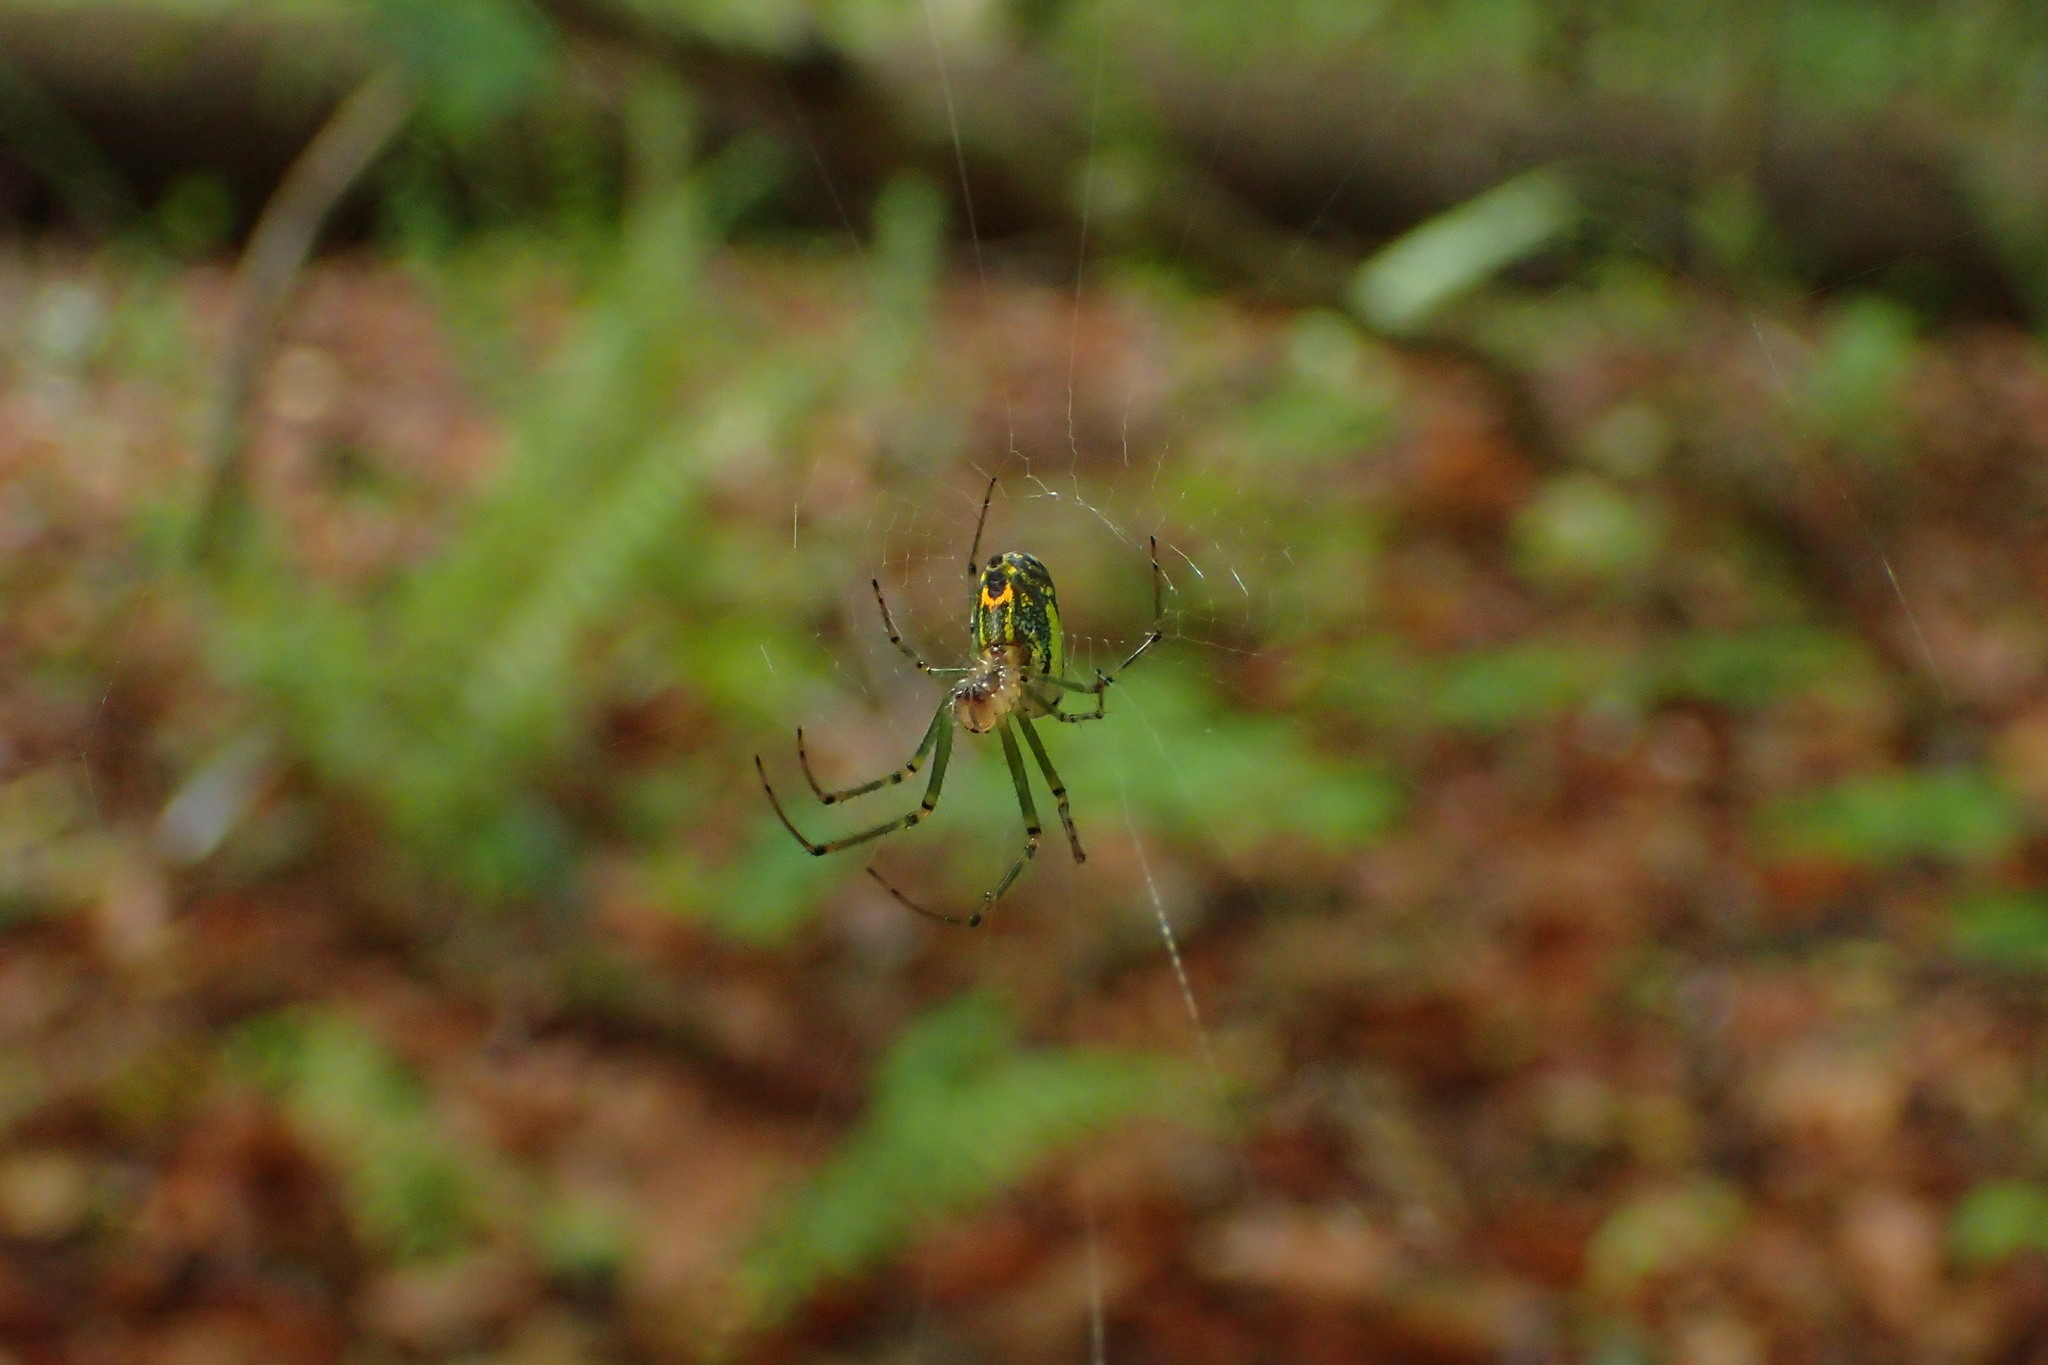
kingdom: Animalia
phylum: Arthropoda
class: Arachnida
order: Araneae
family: Tetragnathidae
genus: Leucauge
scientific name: Leucauge venusta
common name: Longjawed orb weavers
